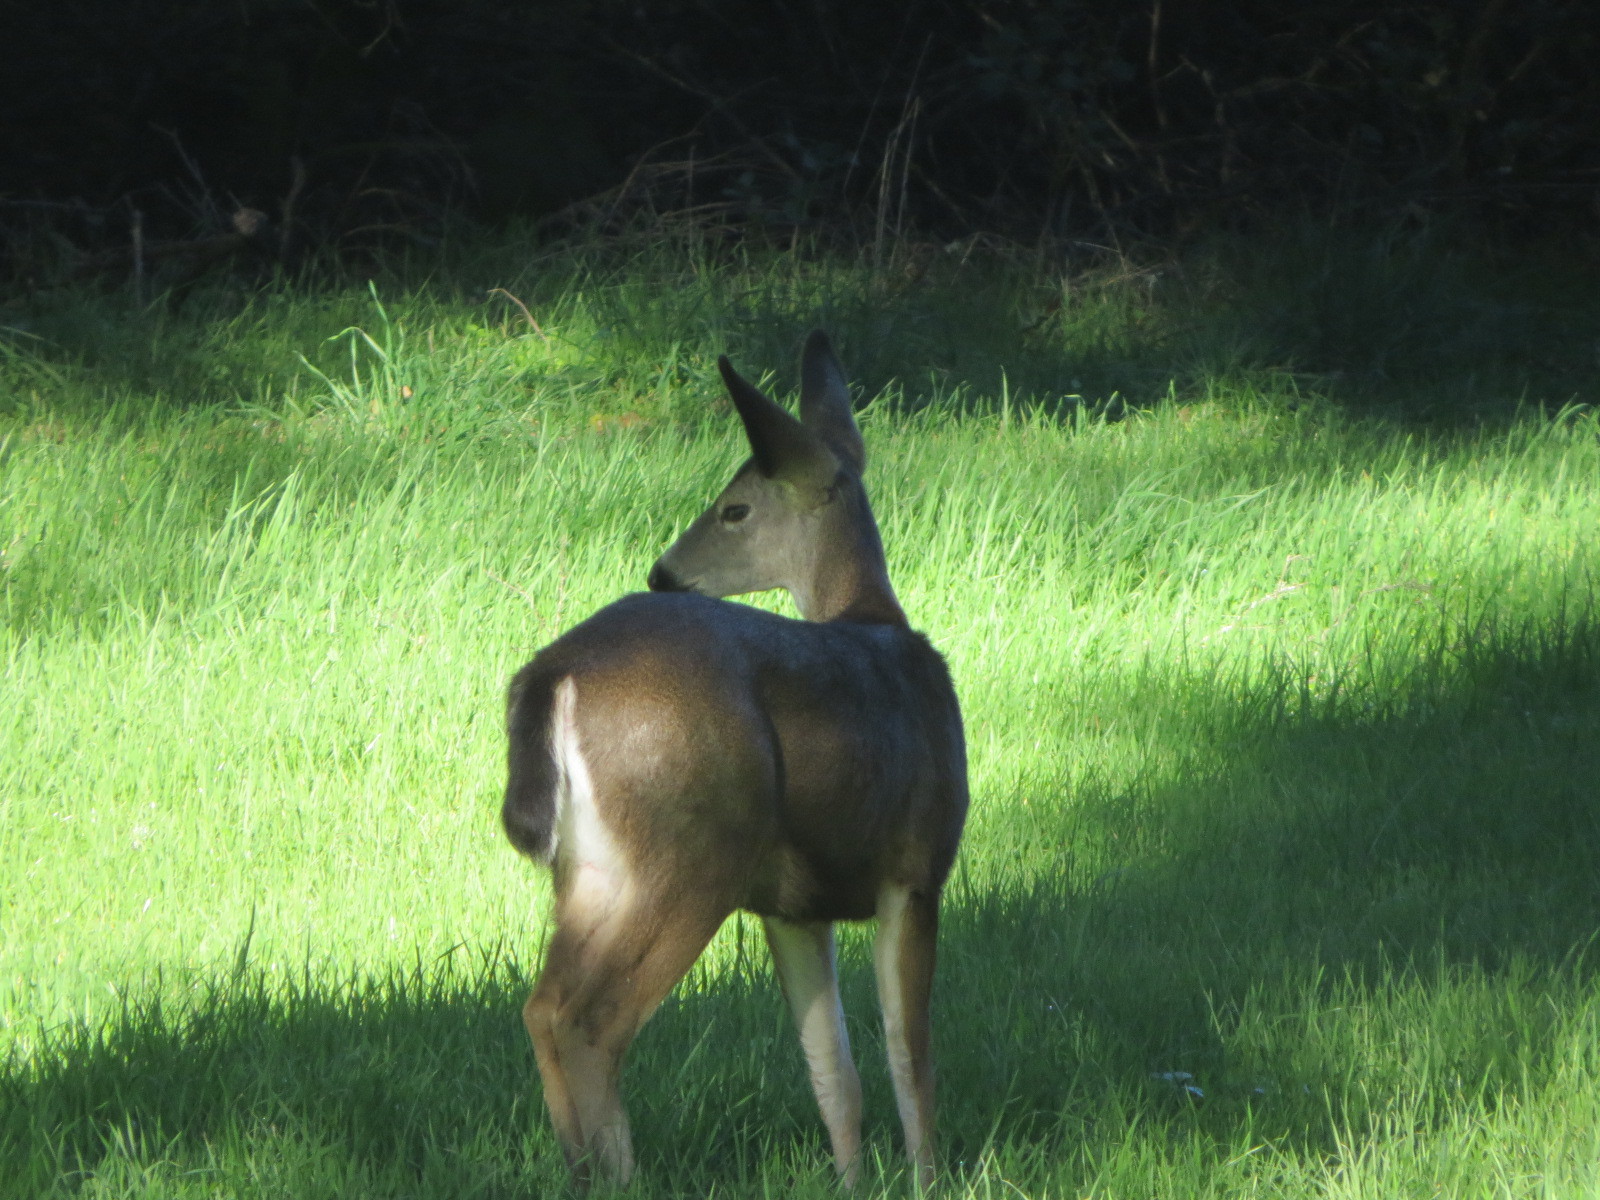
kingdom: Animalia
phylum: Chordata
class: Mammalia
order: Artiodactyla
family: Cervidae
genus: Odocoileus
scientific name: Odocoileus hemionus
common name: Mule deer
